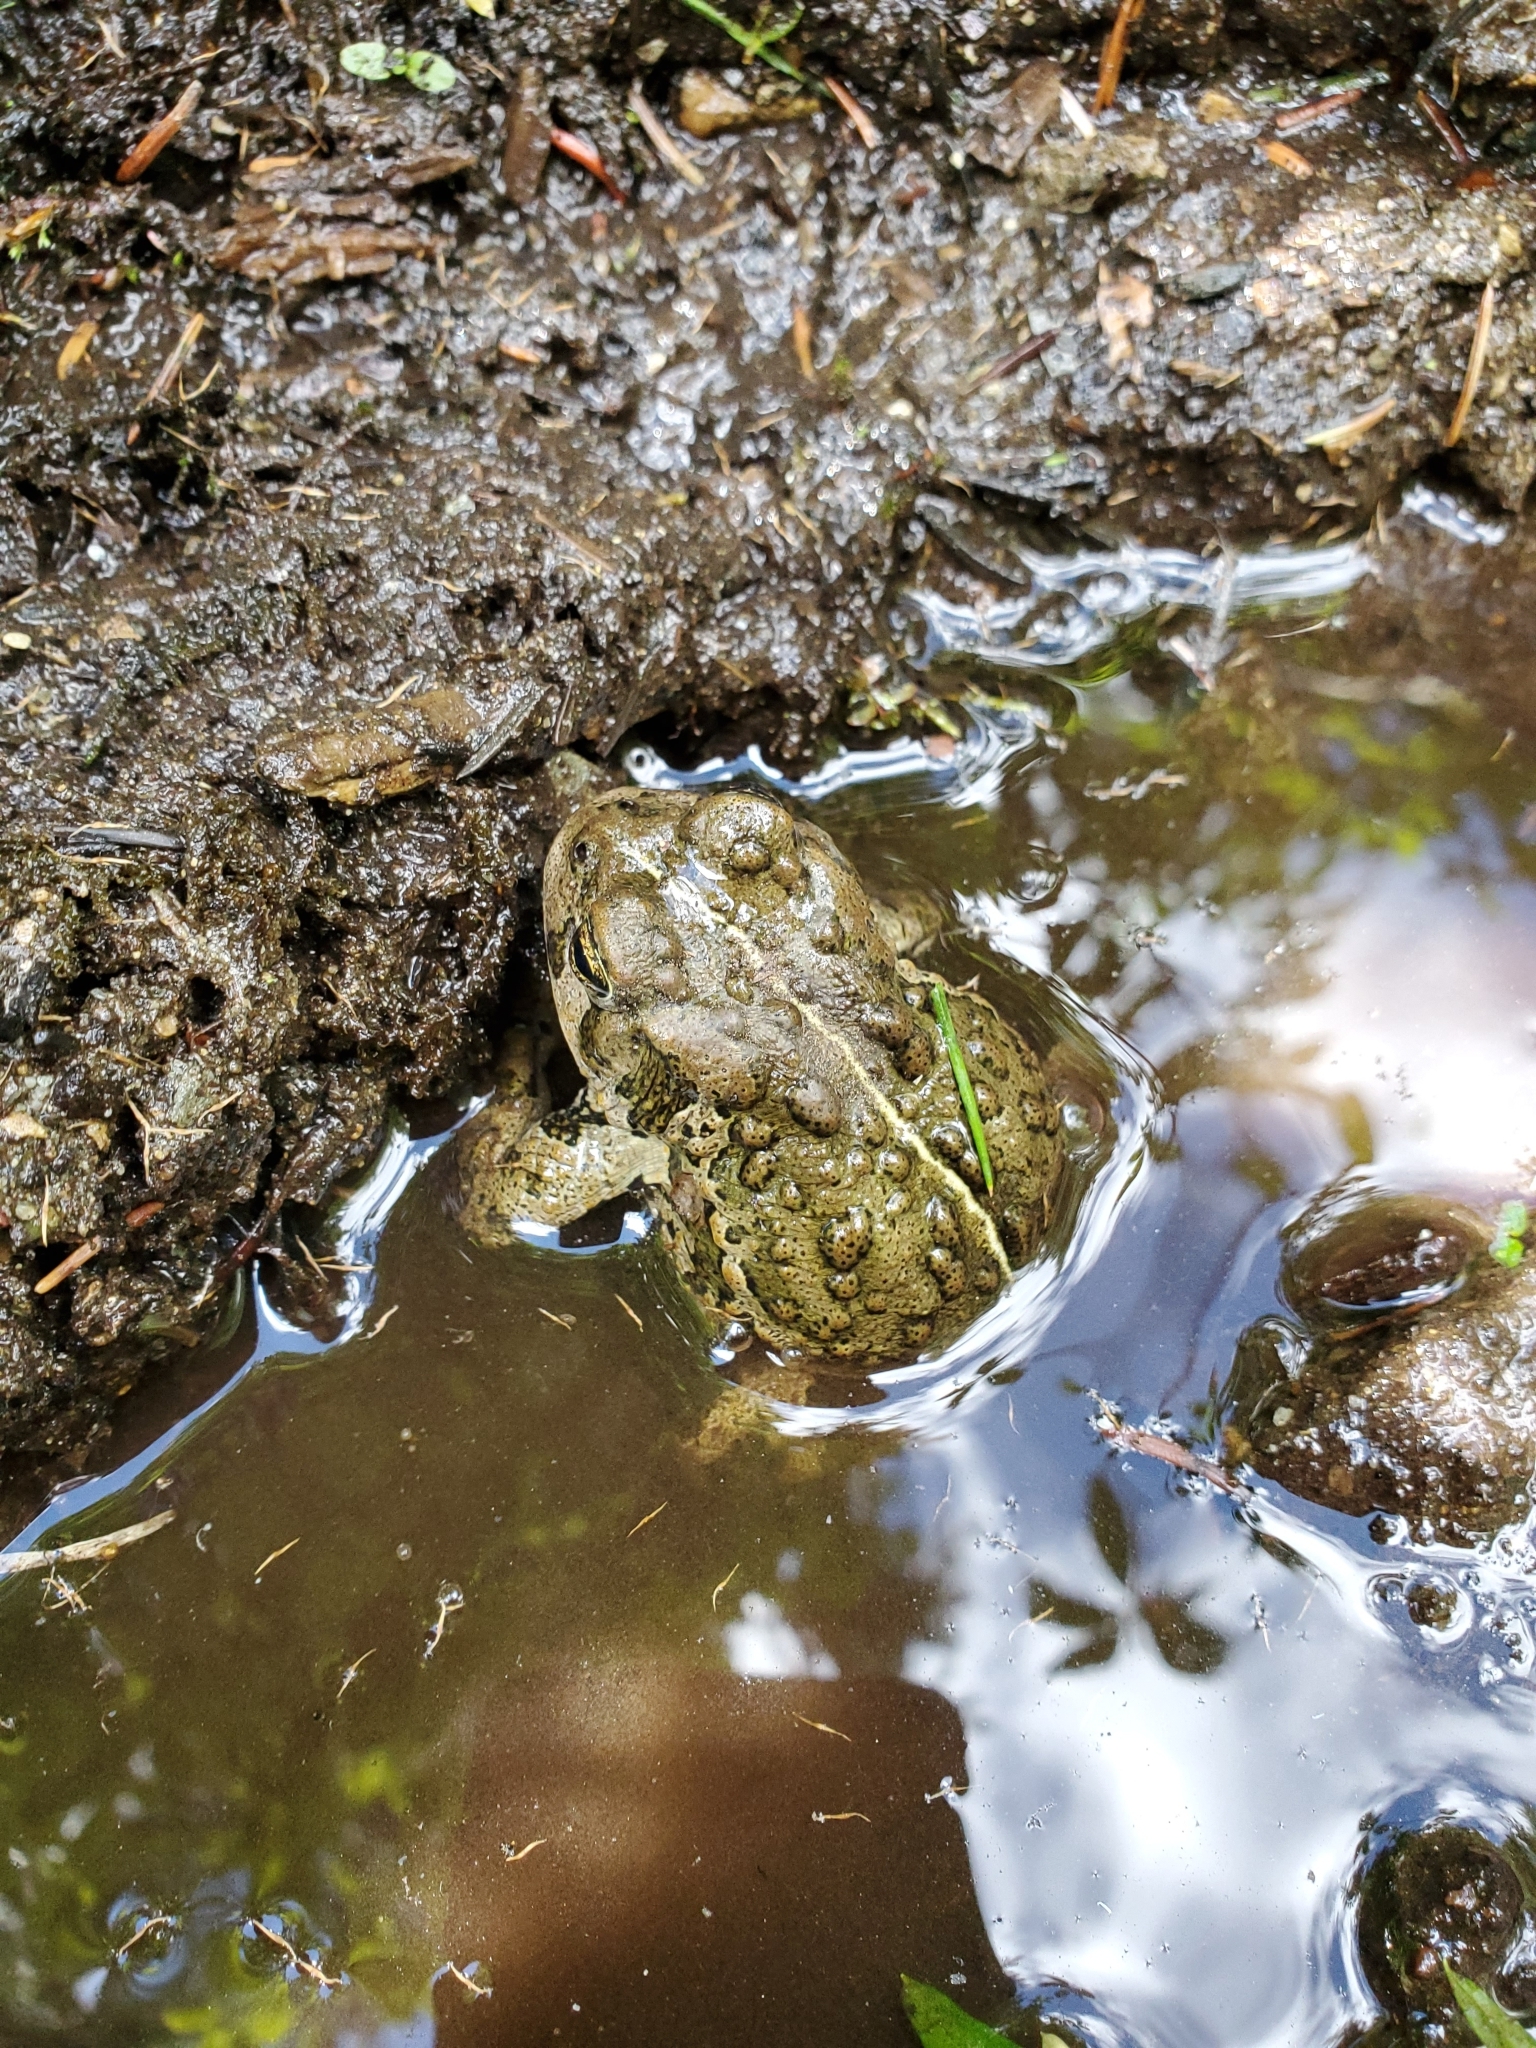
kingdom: Animalia
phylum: Chordata
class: Amphibia
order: Anura
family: Bufonidae
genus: Anaxyrus
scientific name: Anaxyrus boreas
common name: Western toad
